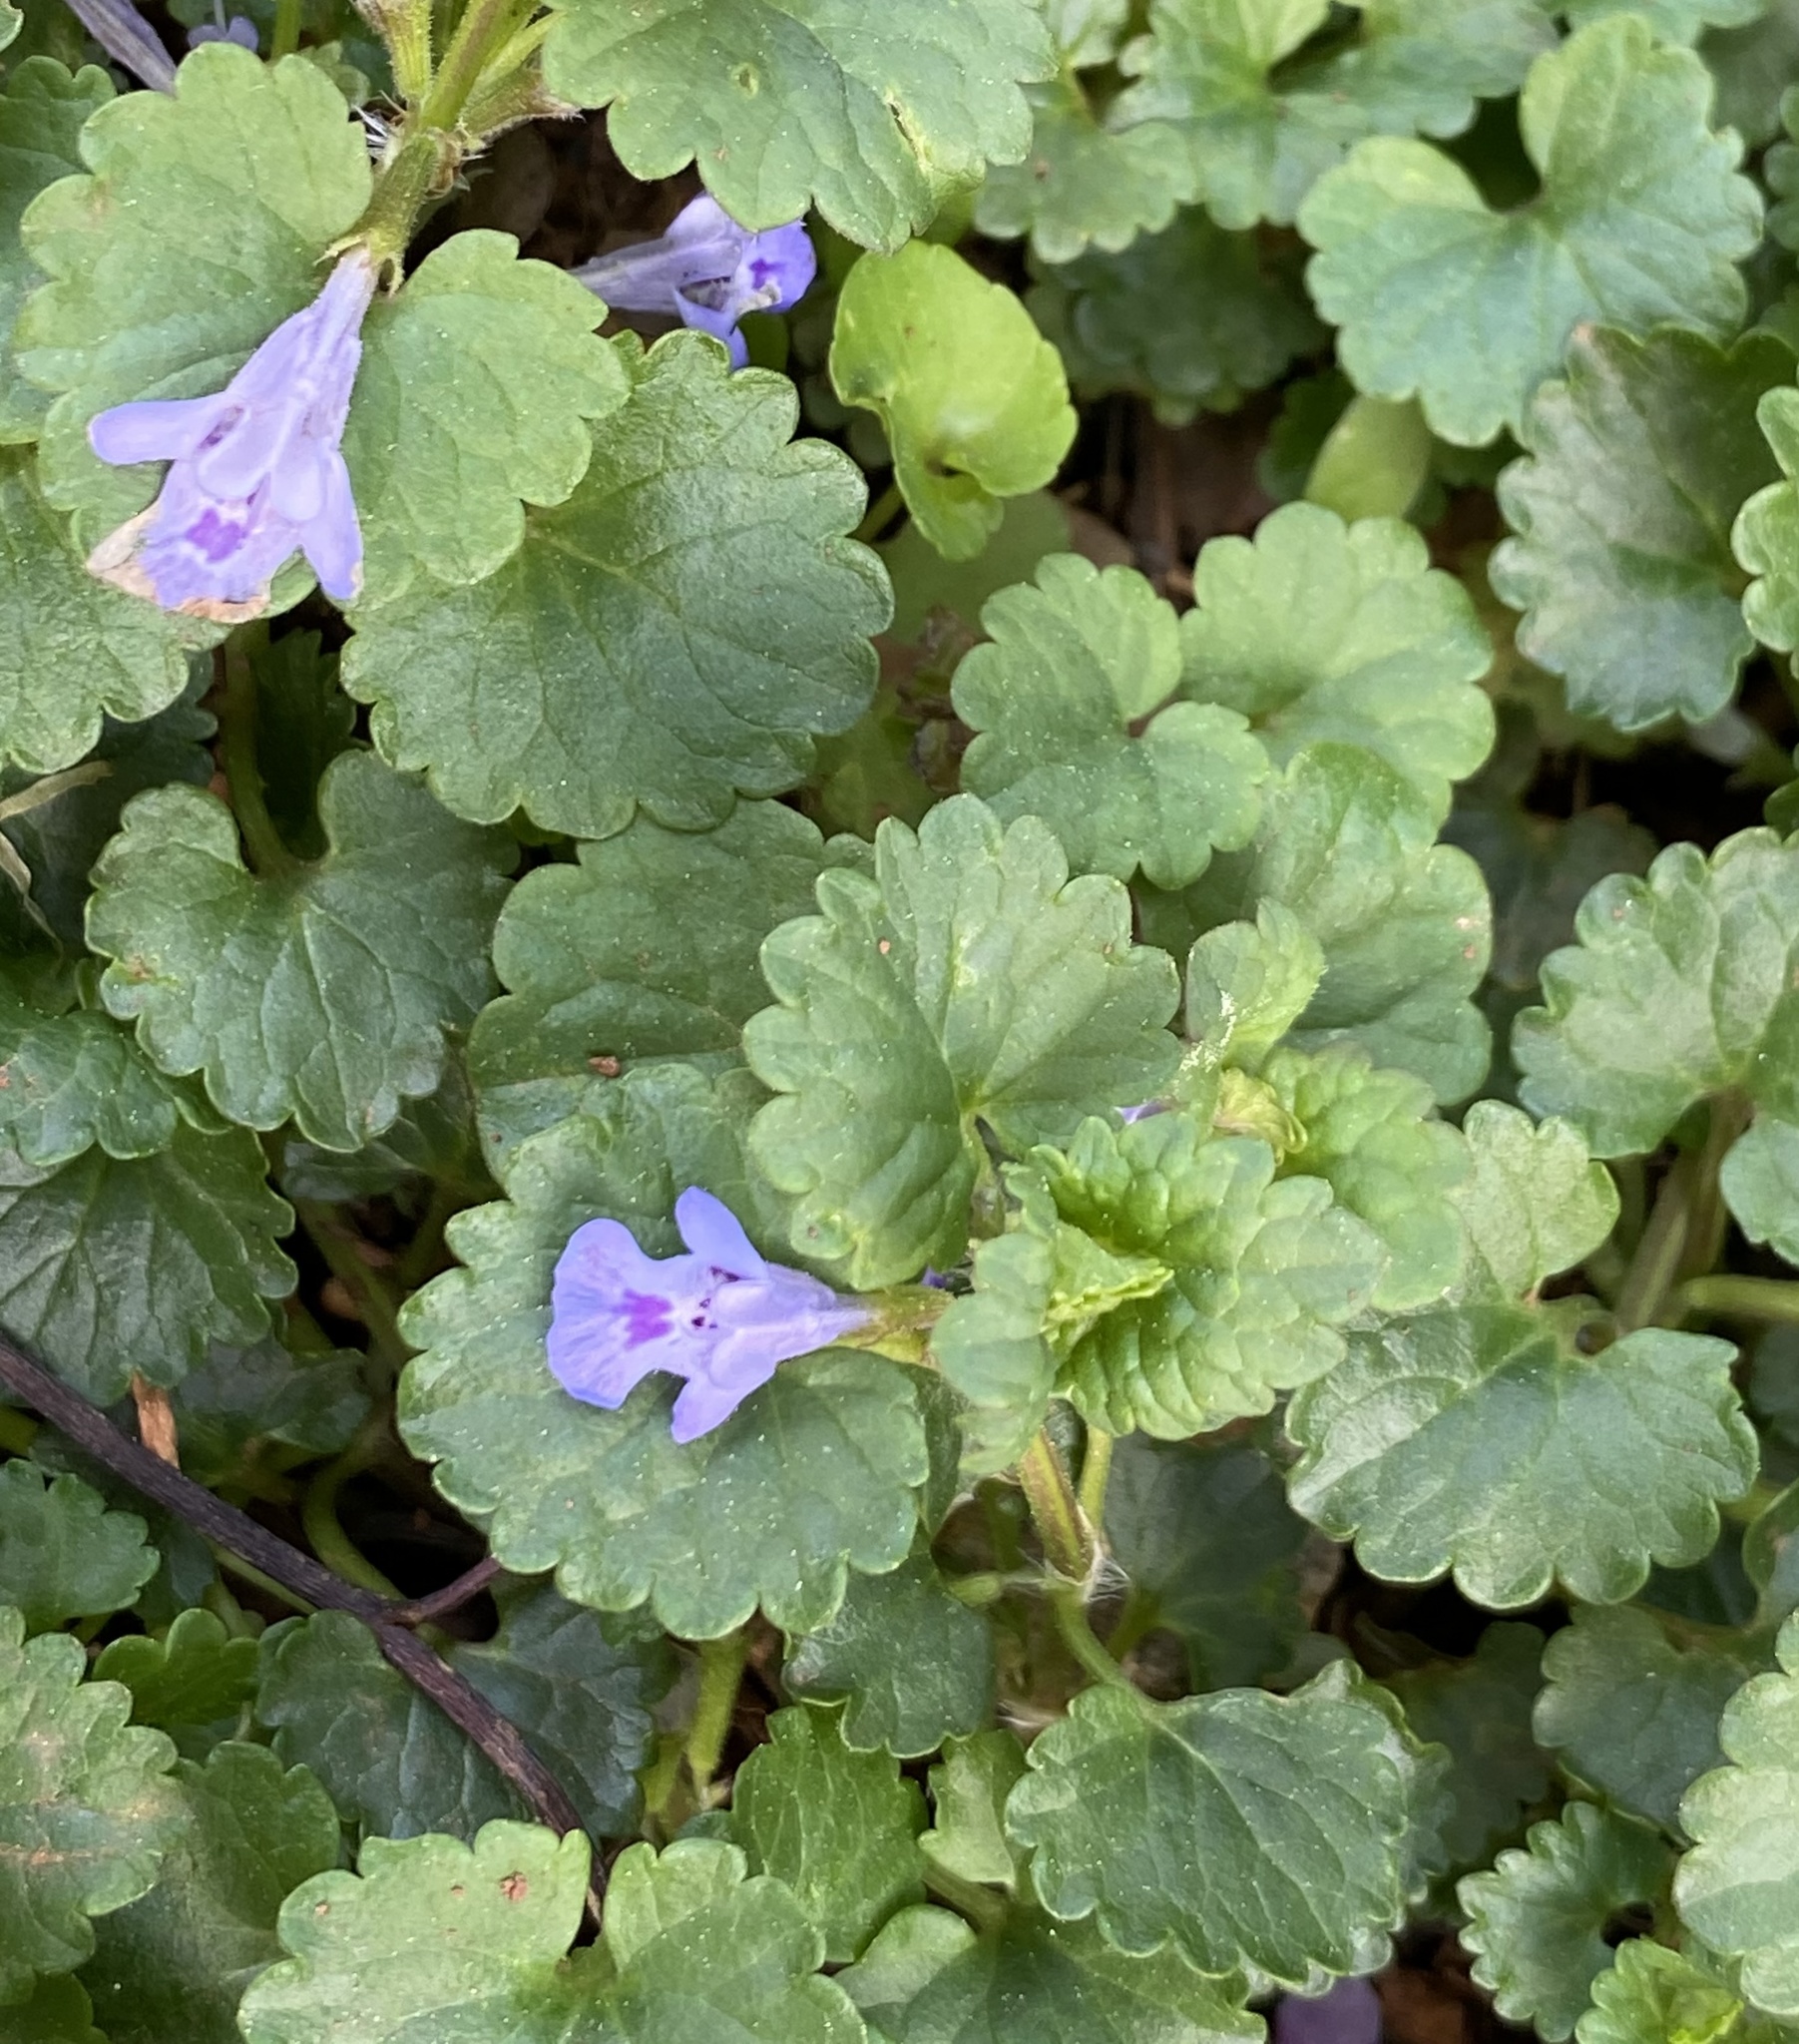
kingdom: Plantae
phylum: Tracheophyta
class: Magnoliopsida
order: Lamiales
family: Lamiaceae
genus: Glechoma
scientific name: Glechoma hederacea
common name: Ground ivy
